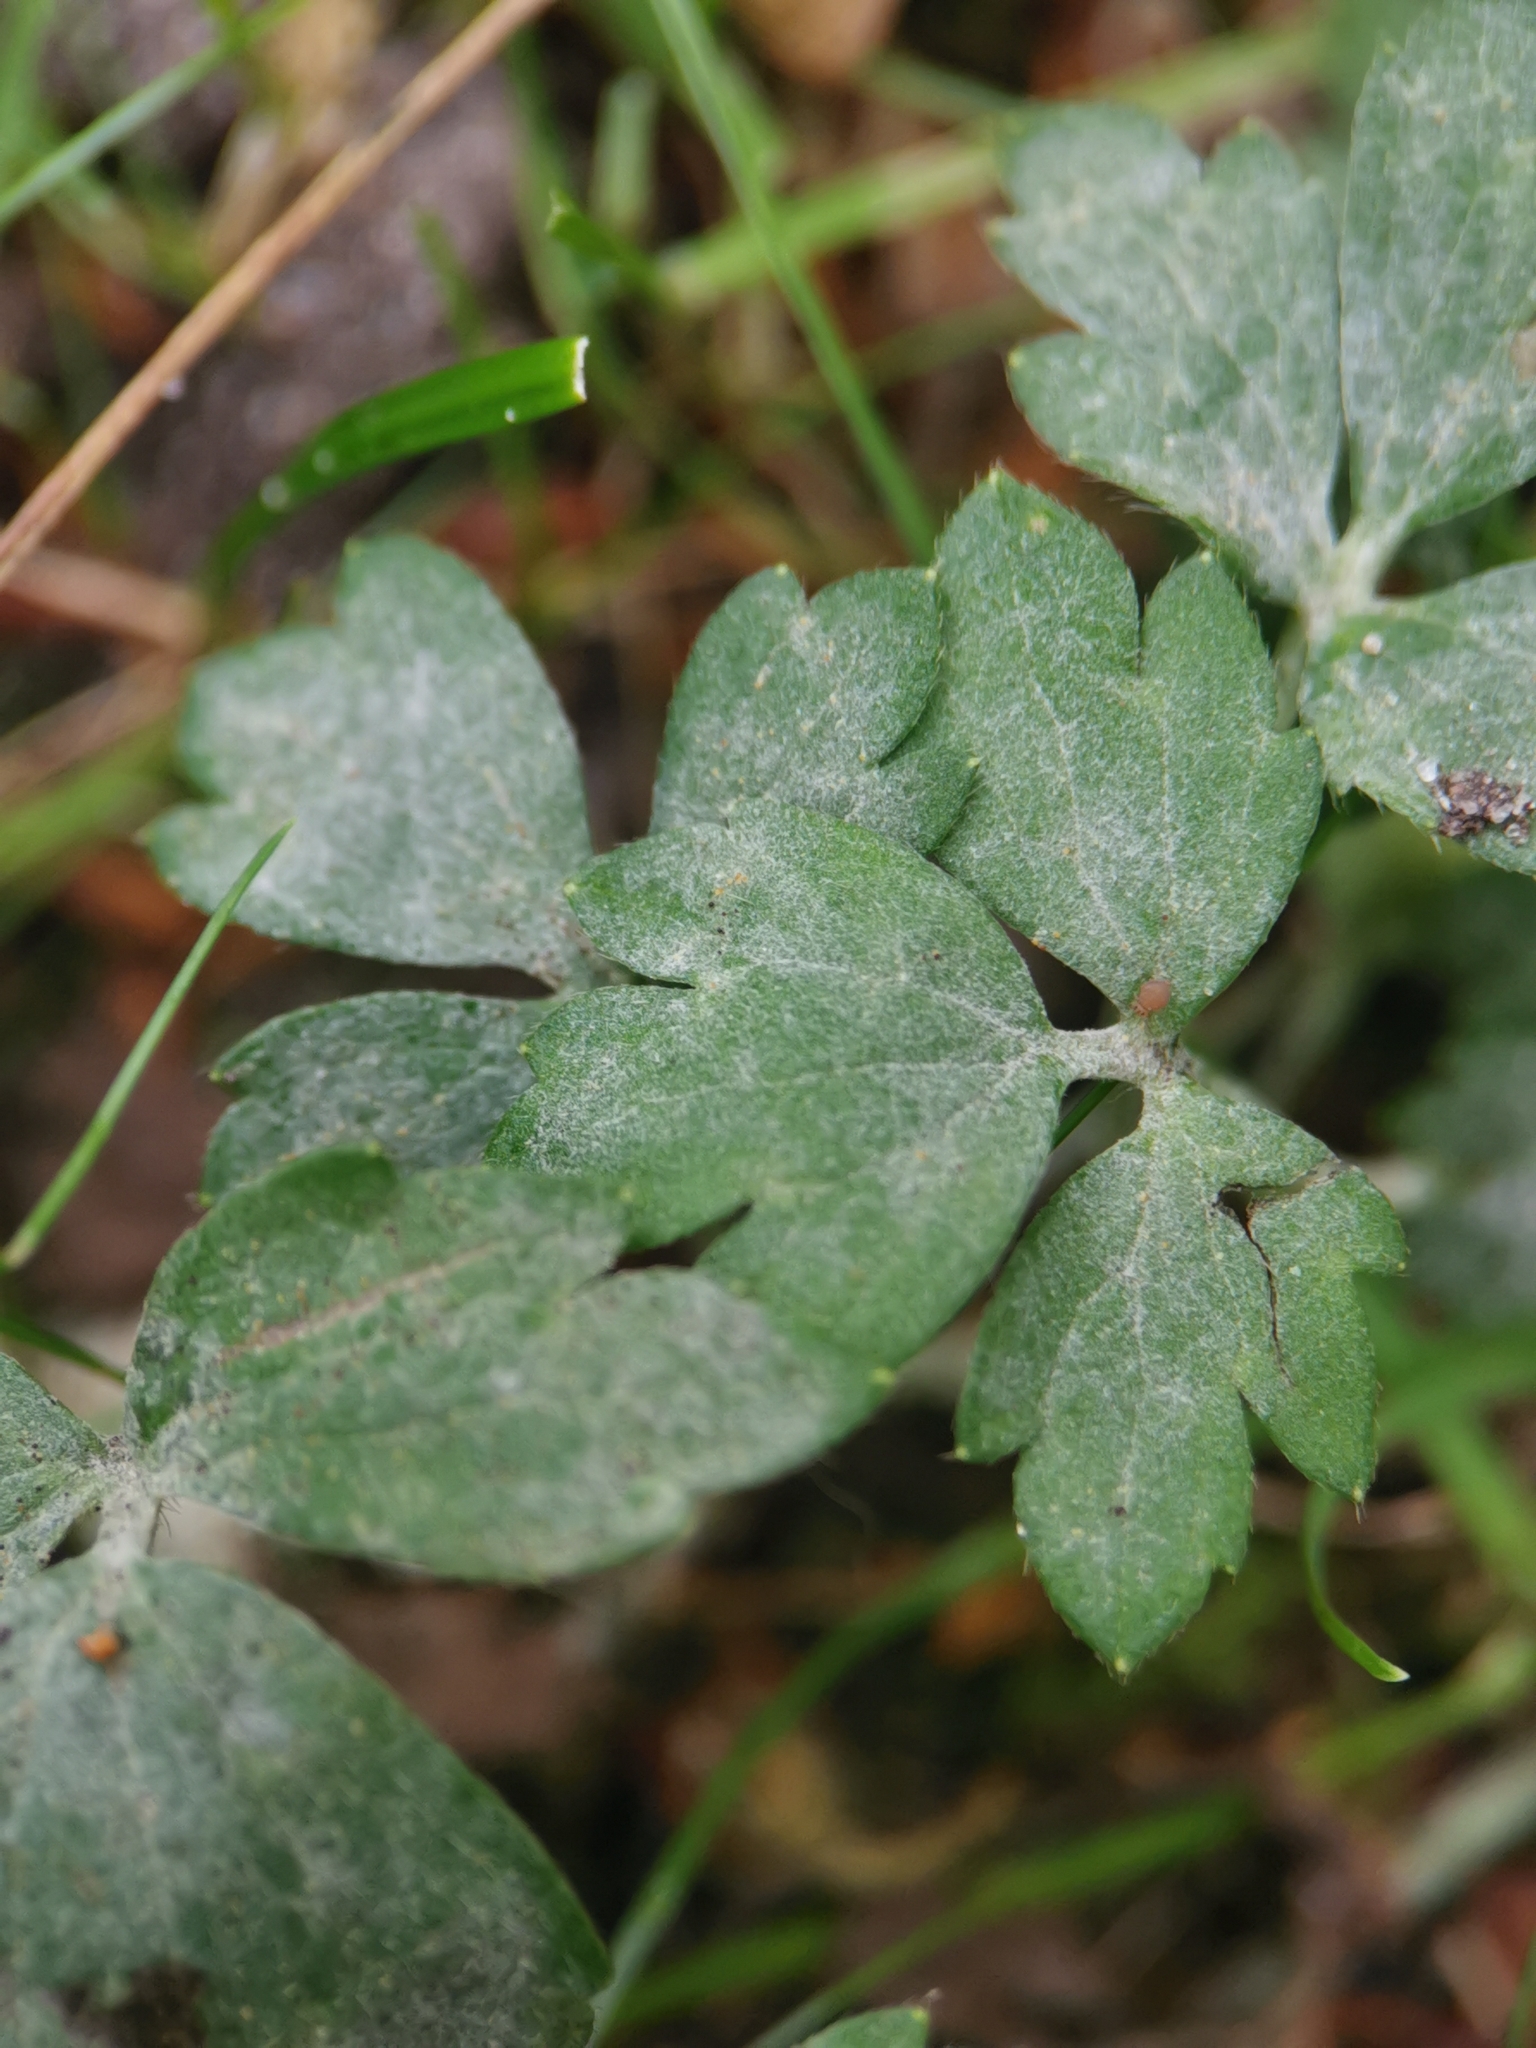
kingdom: Fungi
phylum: Ascomycota
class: Leotiomycetes
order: Helotiales
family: Erysiphaceae
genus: Erysiphe
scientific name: Erysiphe aquilegiae
